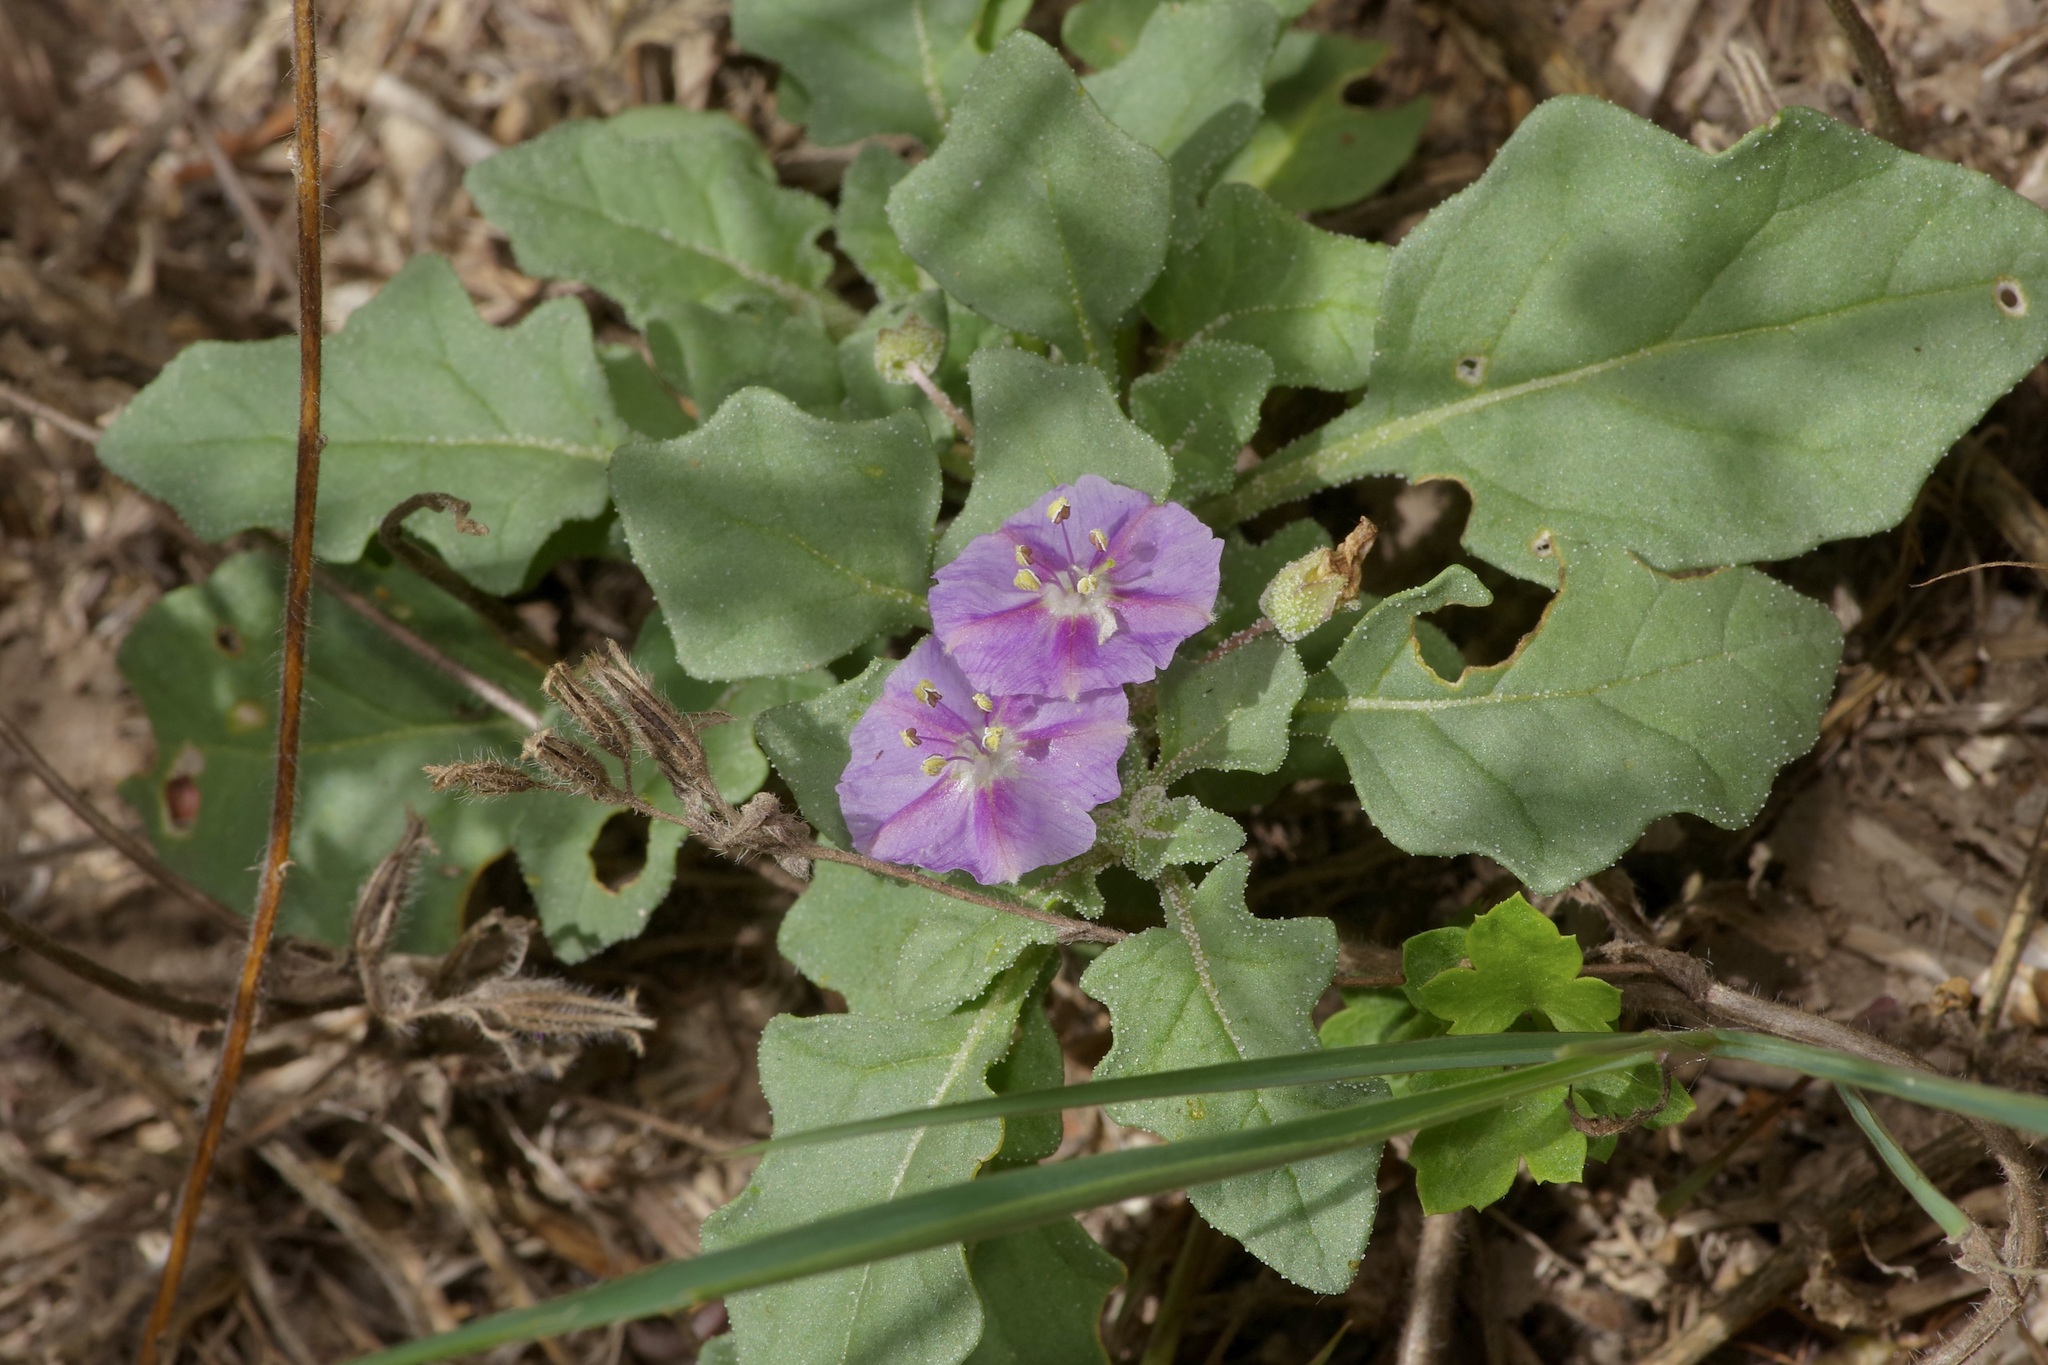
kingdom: Plantae
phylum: Tracheophyta
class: Magnoliopsida
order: Solanales
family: Solanaceae
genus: Quincula
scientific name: Quincula lobata
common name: Purple-ground-cherry
